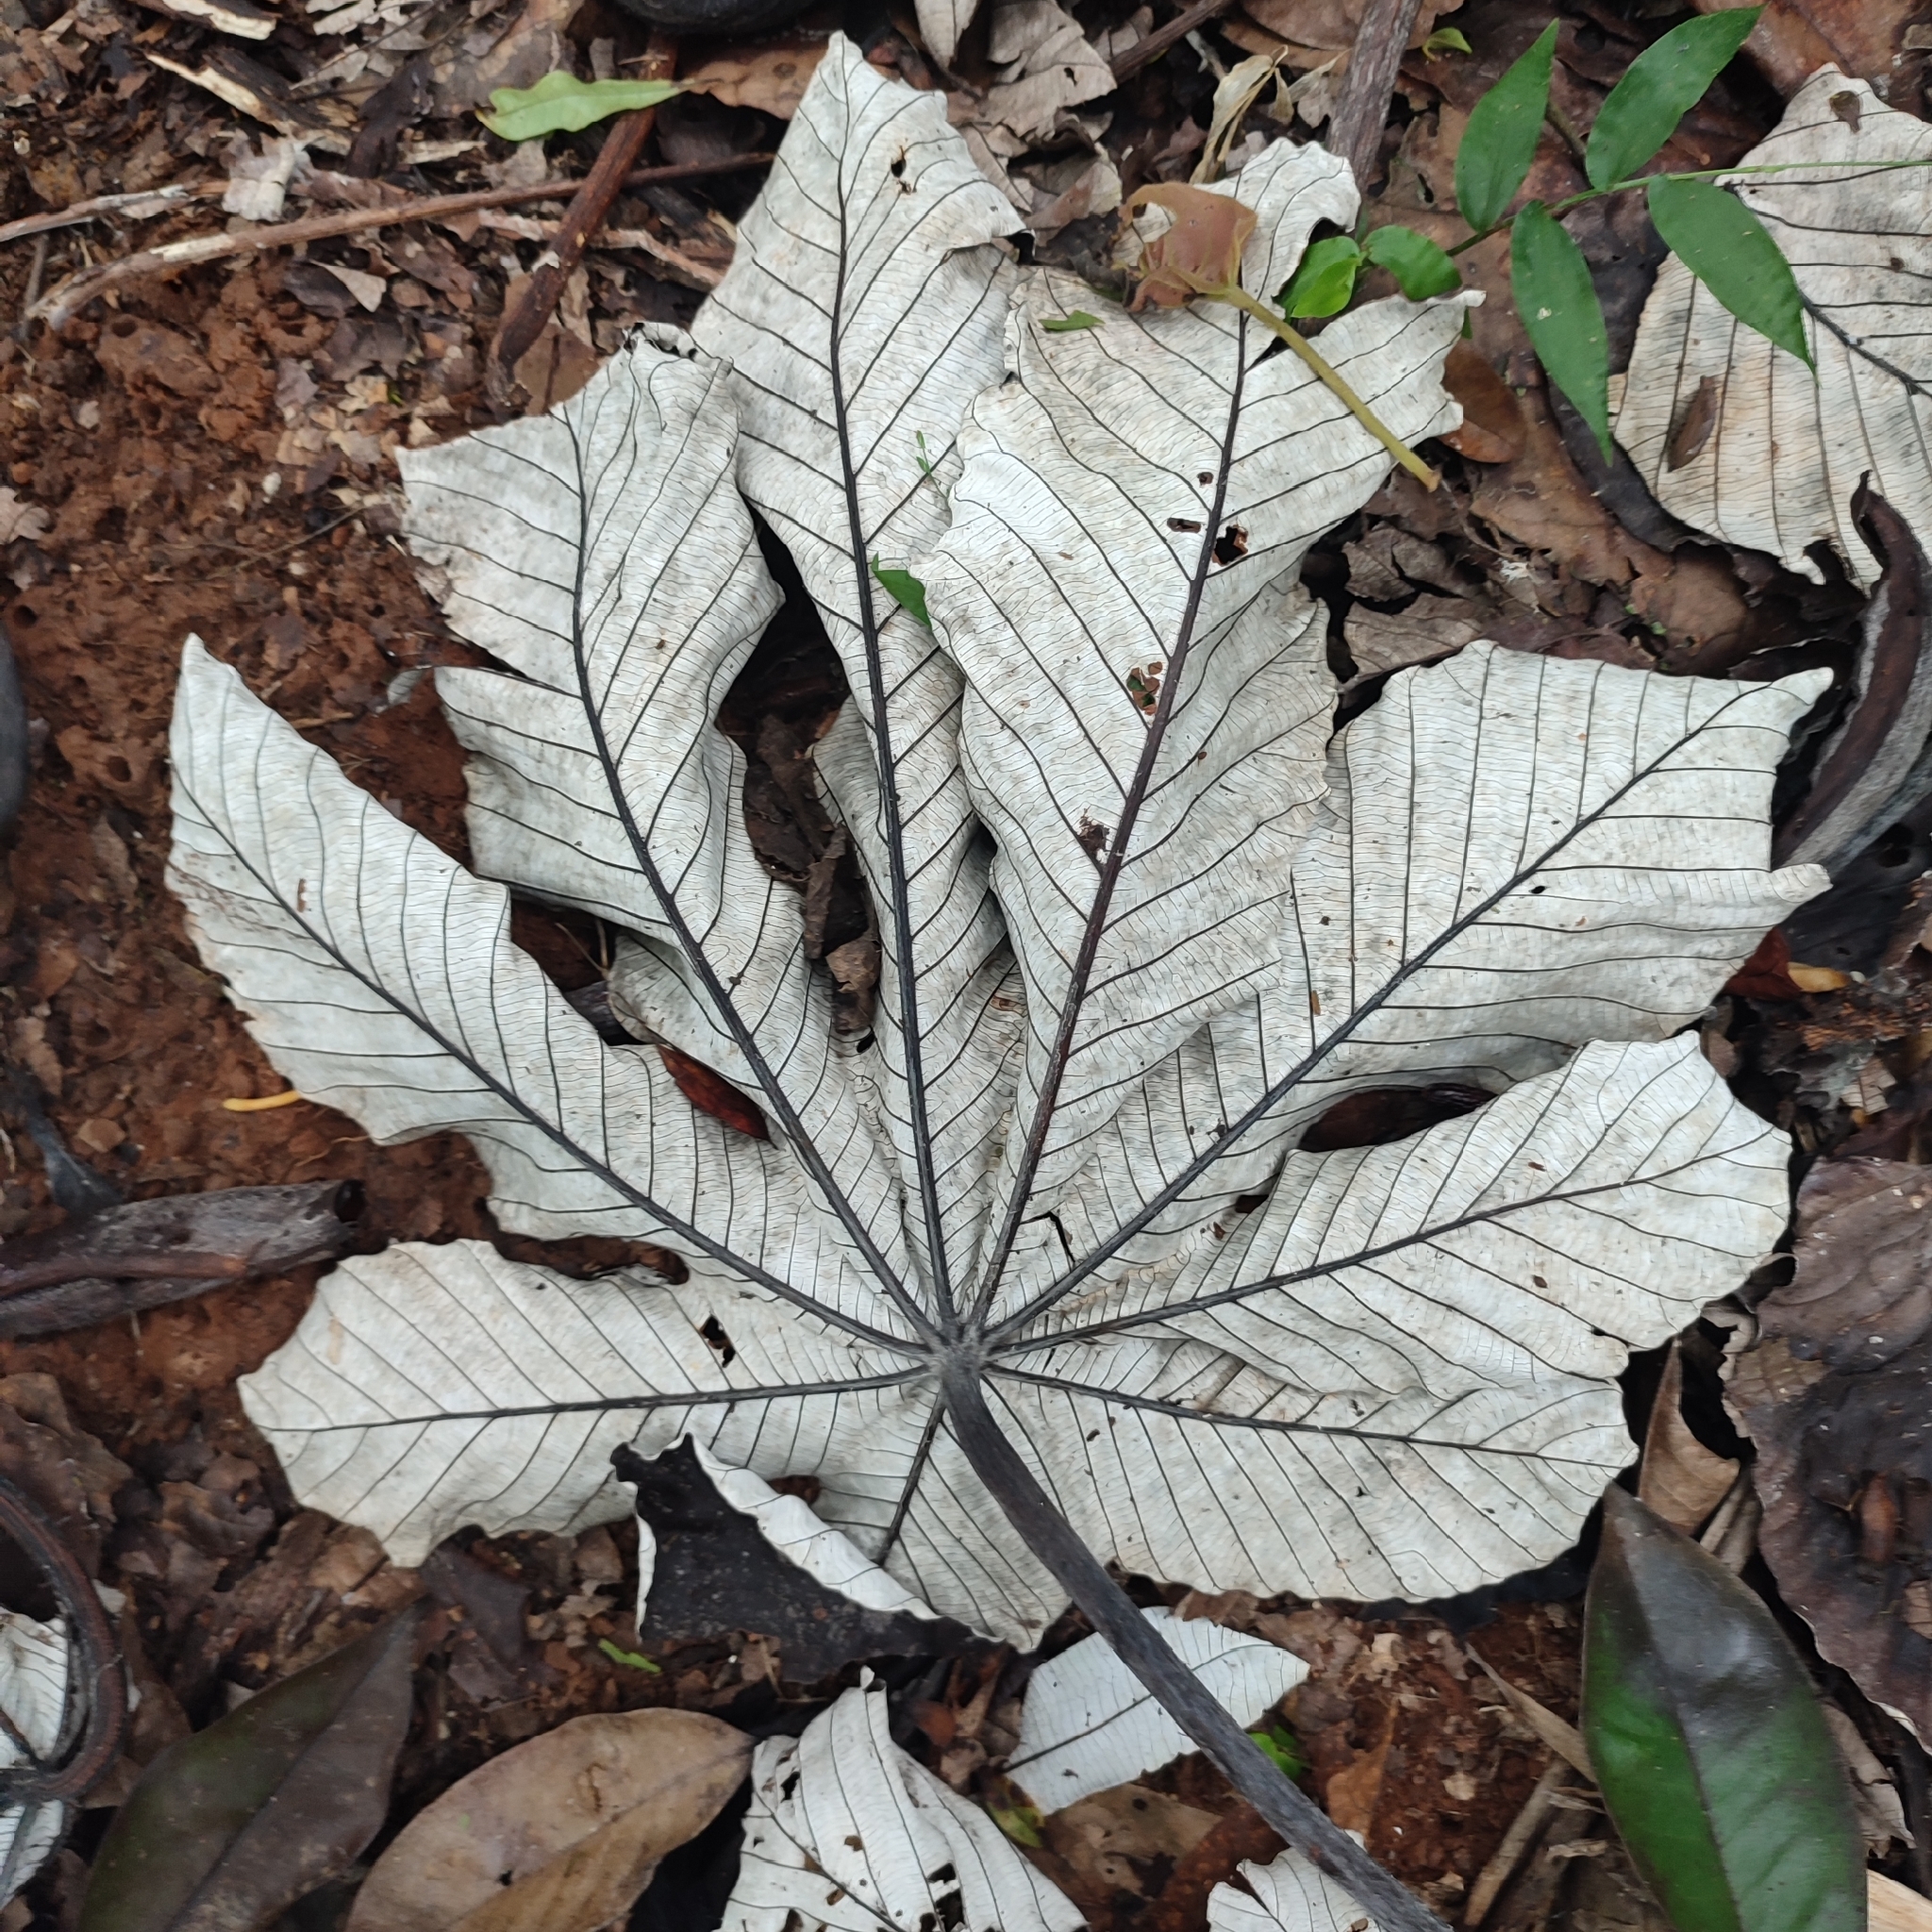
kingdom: Plantae
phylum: Tracheophyta
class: Magnoliopsida
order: Rosales
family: Urticaceae
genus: Cecropia
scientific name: Cecropia schreberiana
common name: Trumpet tree
